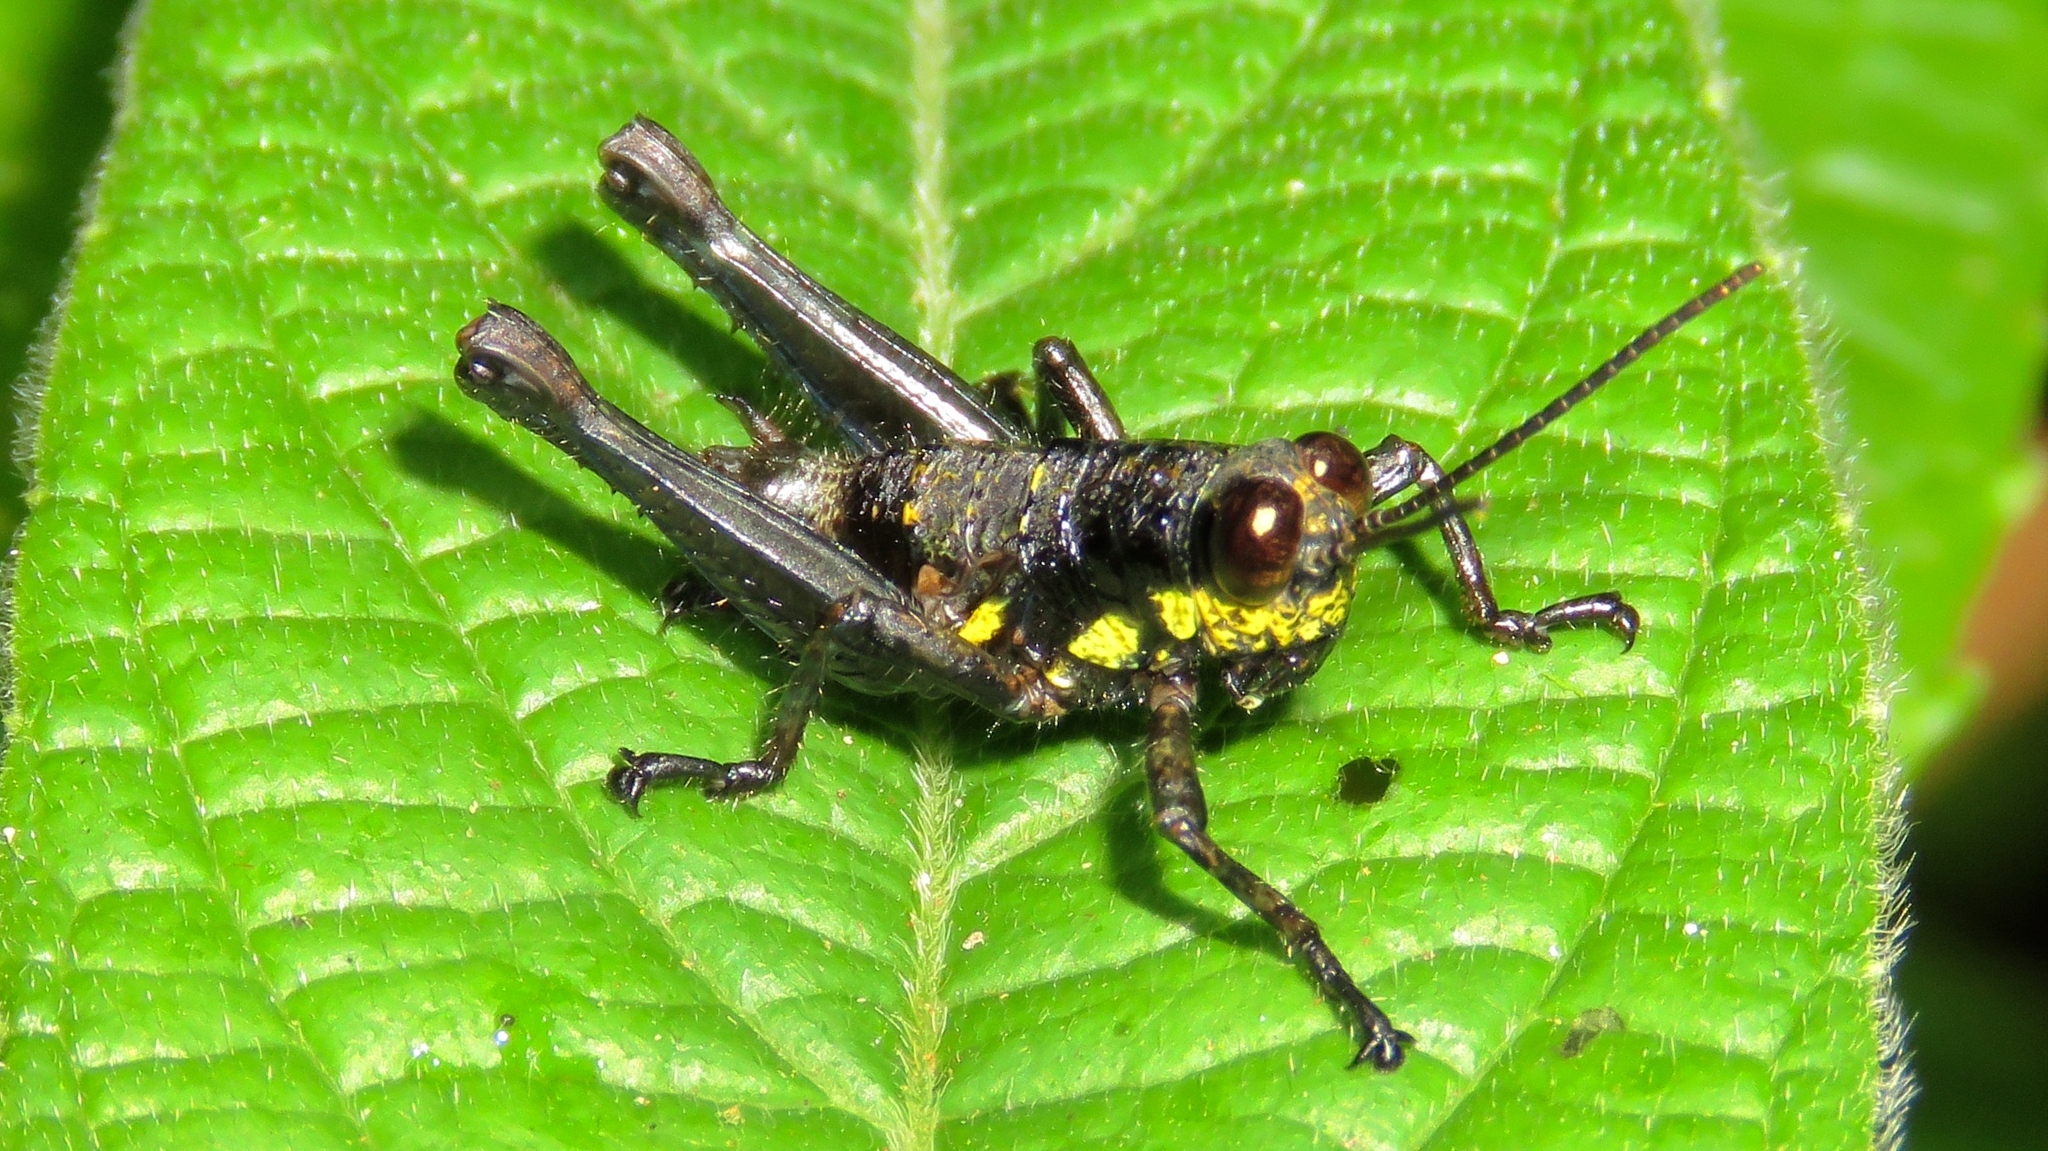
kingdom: Animalia
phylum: Arthropoda
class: Insecta
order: Orthoptera
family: Acrididae
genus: Rhachicreagra
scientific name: Rhachicreagra obsidian
